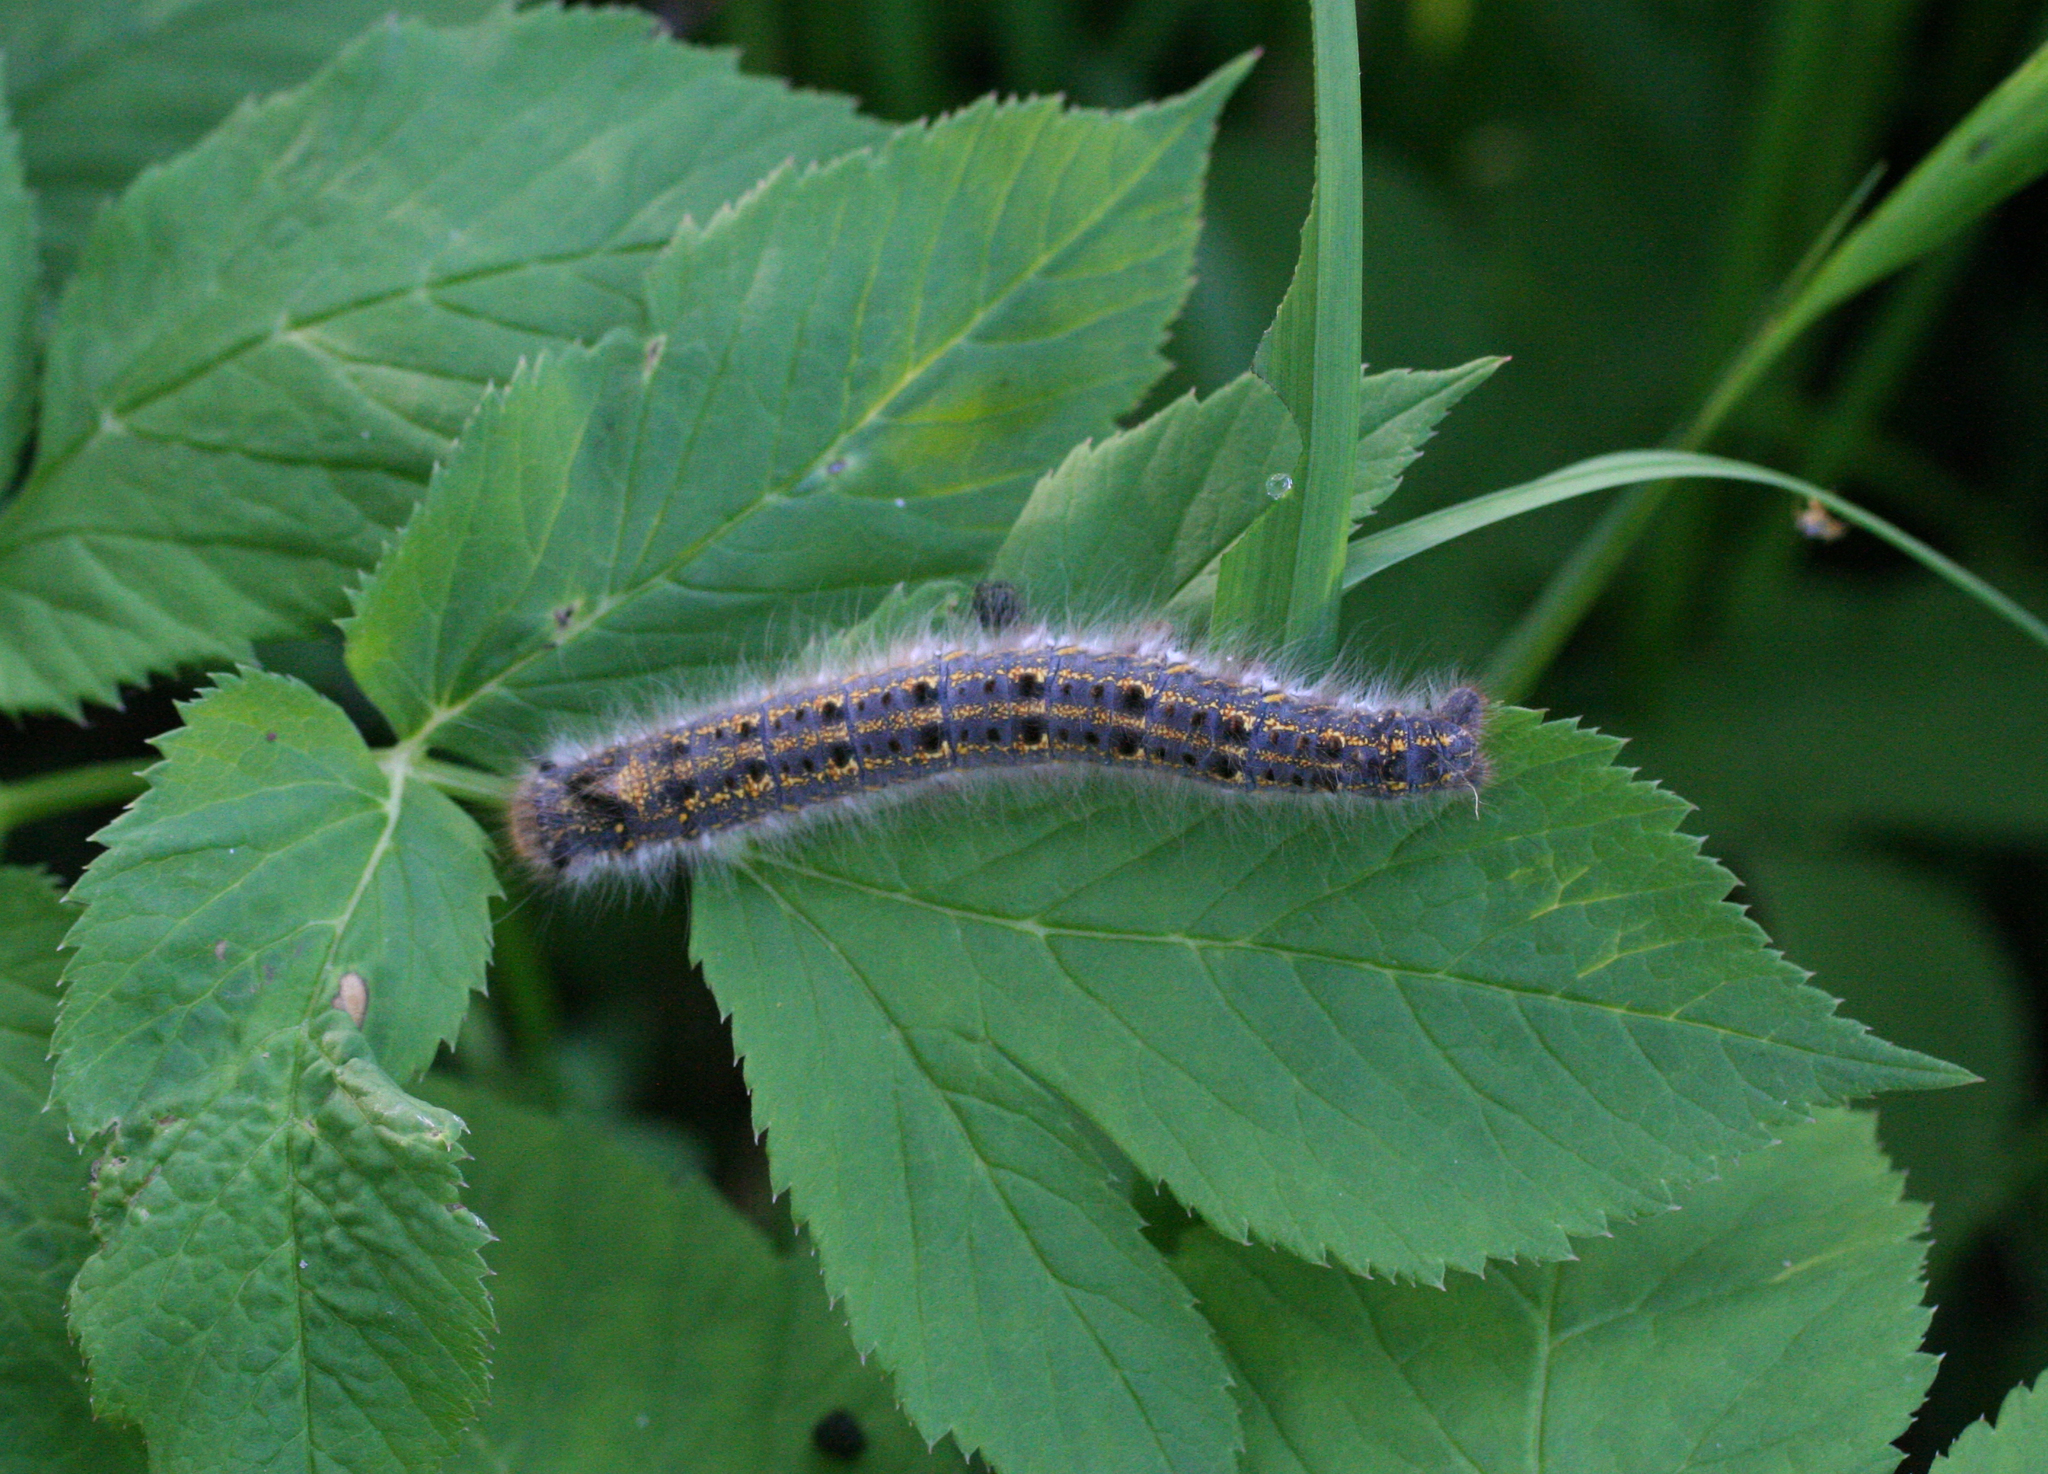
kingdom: Animalia
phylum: Arthropoda
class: Insecta
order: Lepidoptera
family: Lasiocampidae
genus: Euthrix
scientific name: Euthrix potatoria
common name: Drinker
